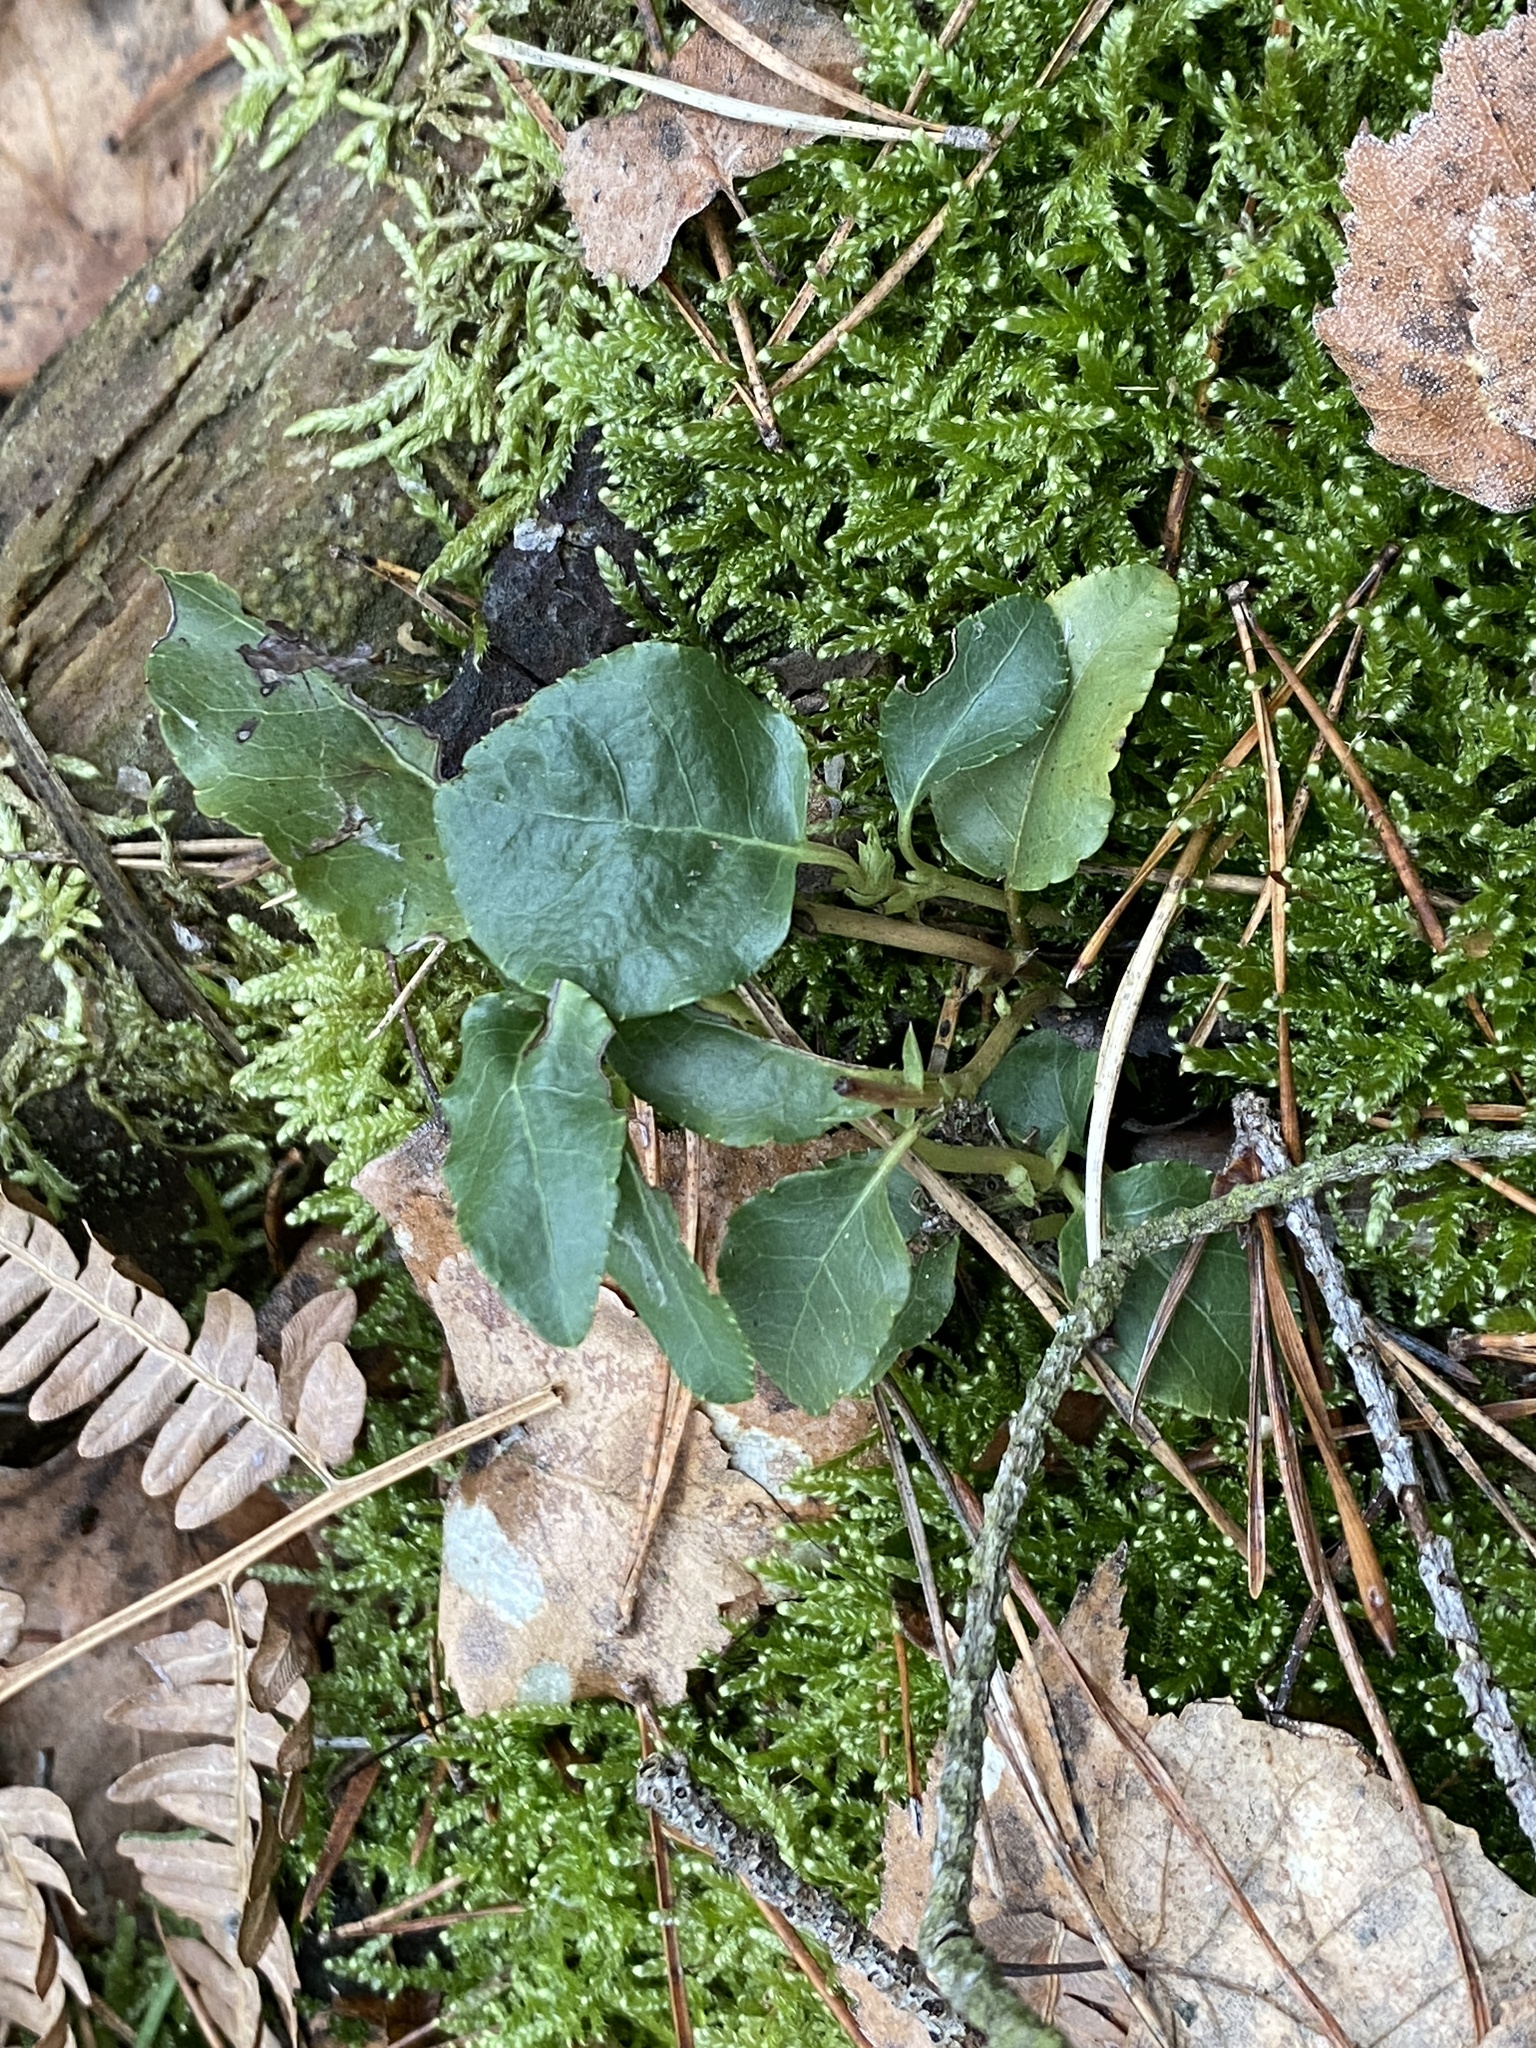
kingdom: Plantae
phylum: Tracheophyta
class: Magnoliopsida
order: Ericales
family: Ericaceae
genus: Orthilia
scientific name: Orthilia secunda
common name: One-sided orthilia
